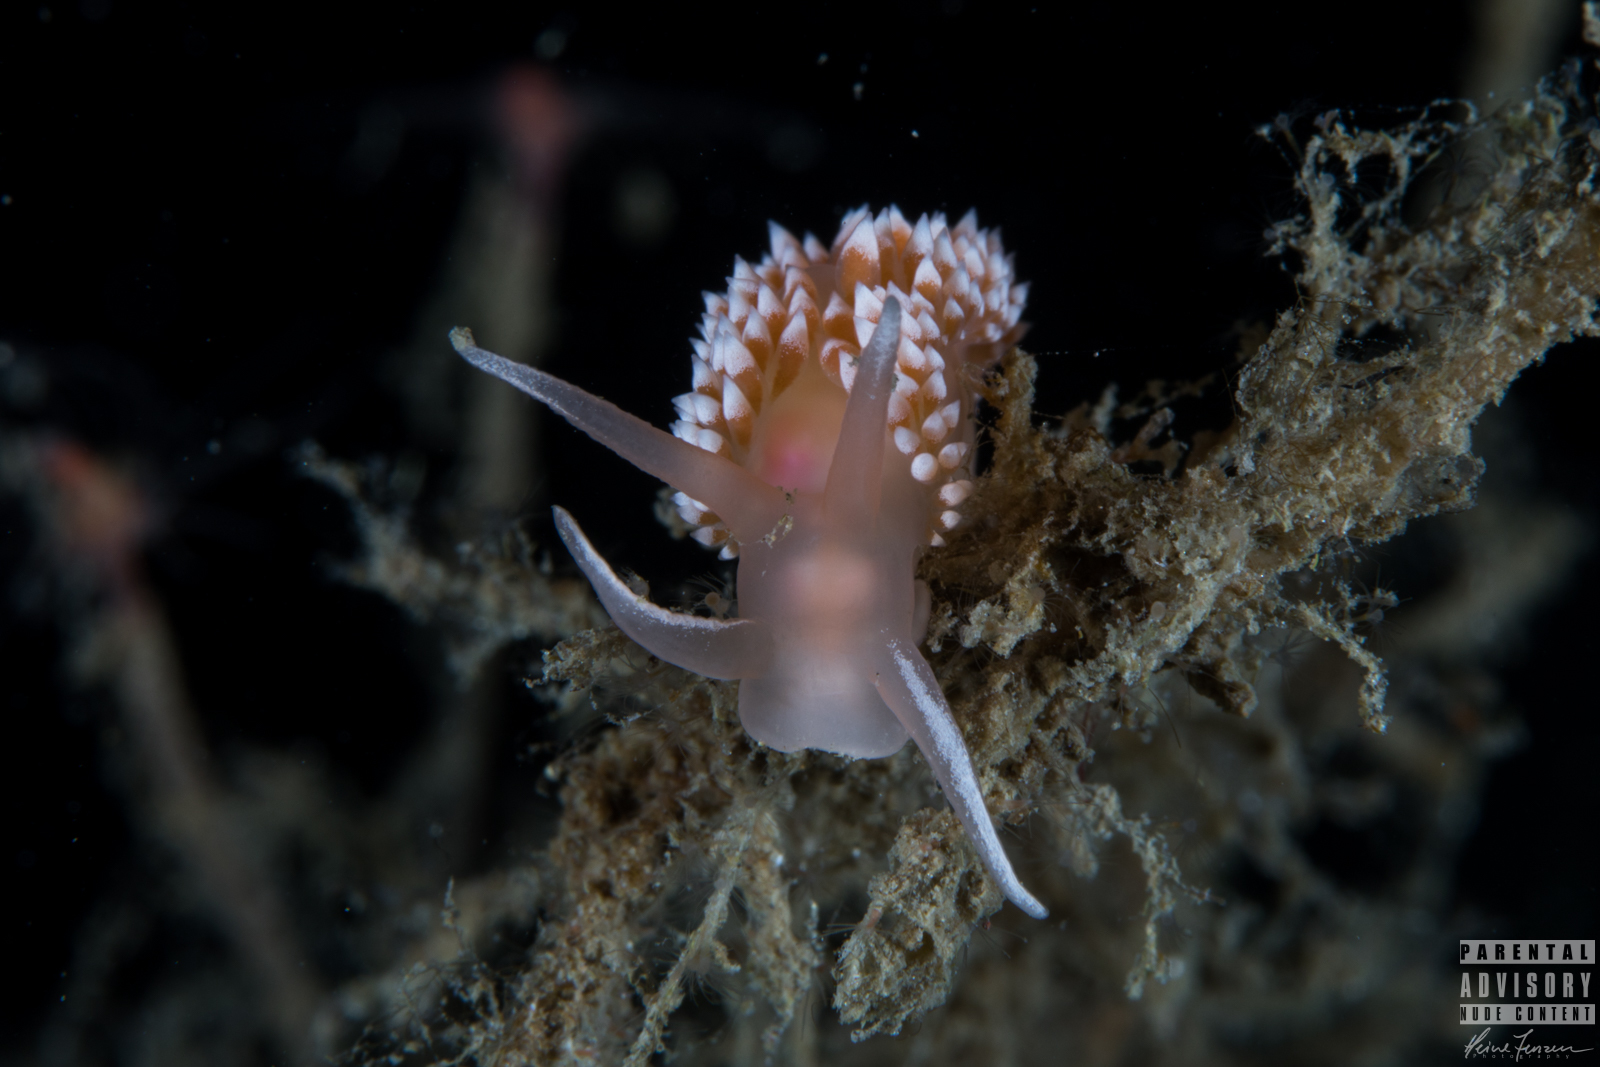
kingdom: Animalia
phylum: Mollusca
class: Gastropoda
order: Nudibranchia
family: Coryphellidae
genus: Coryphella
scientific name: Coryphella verrucosa
